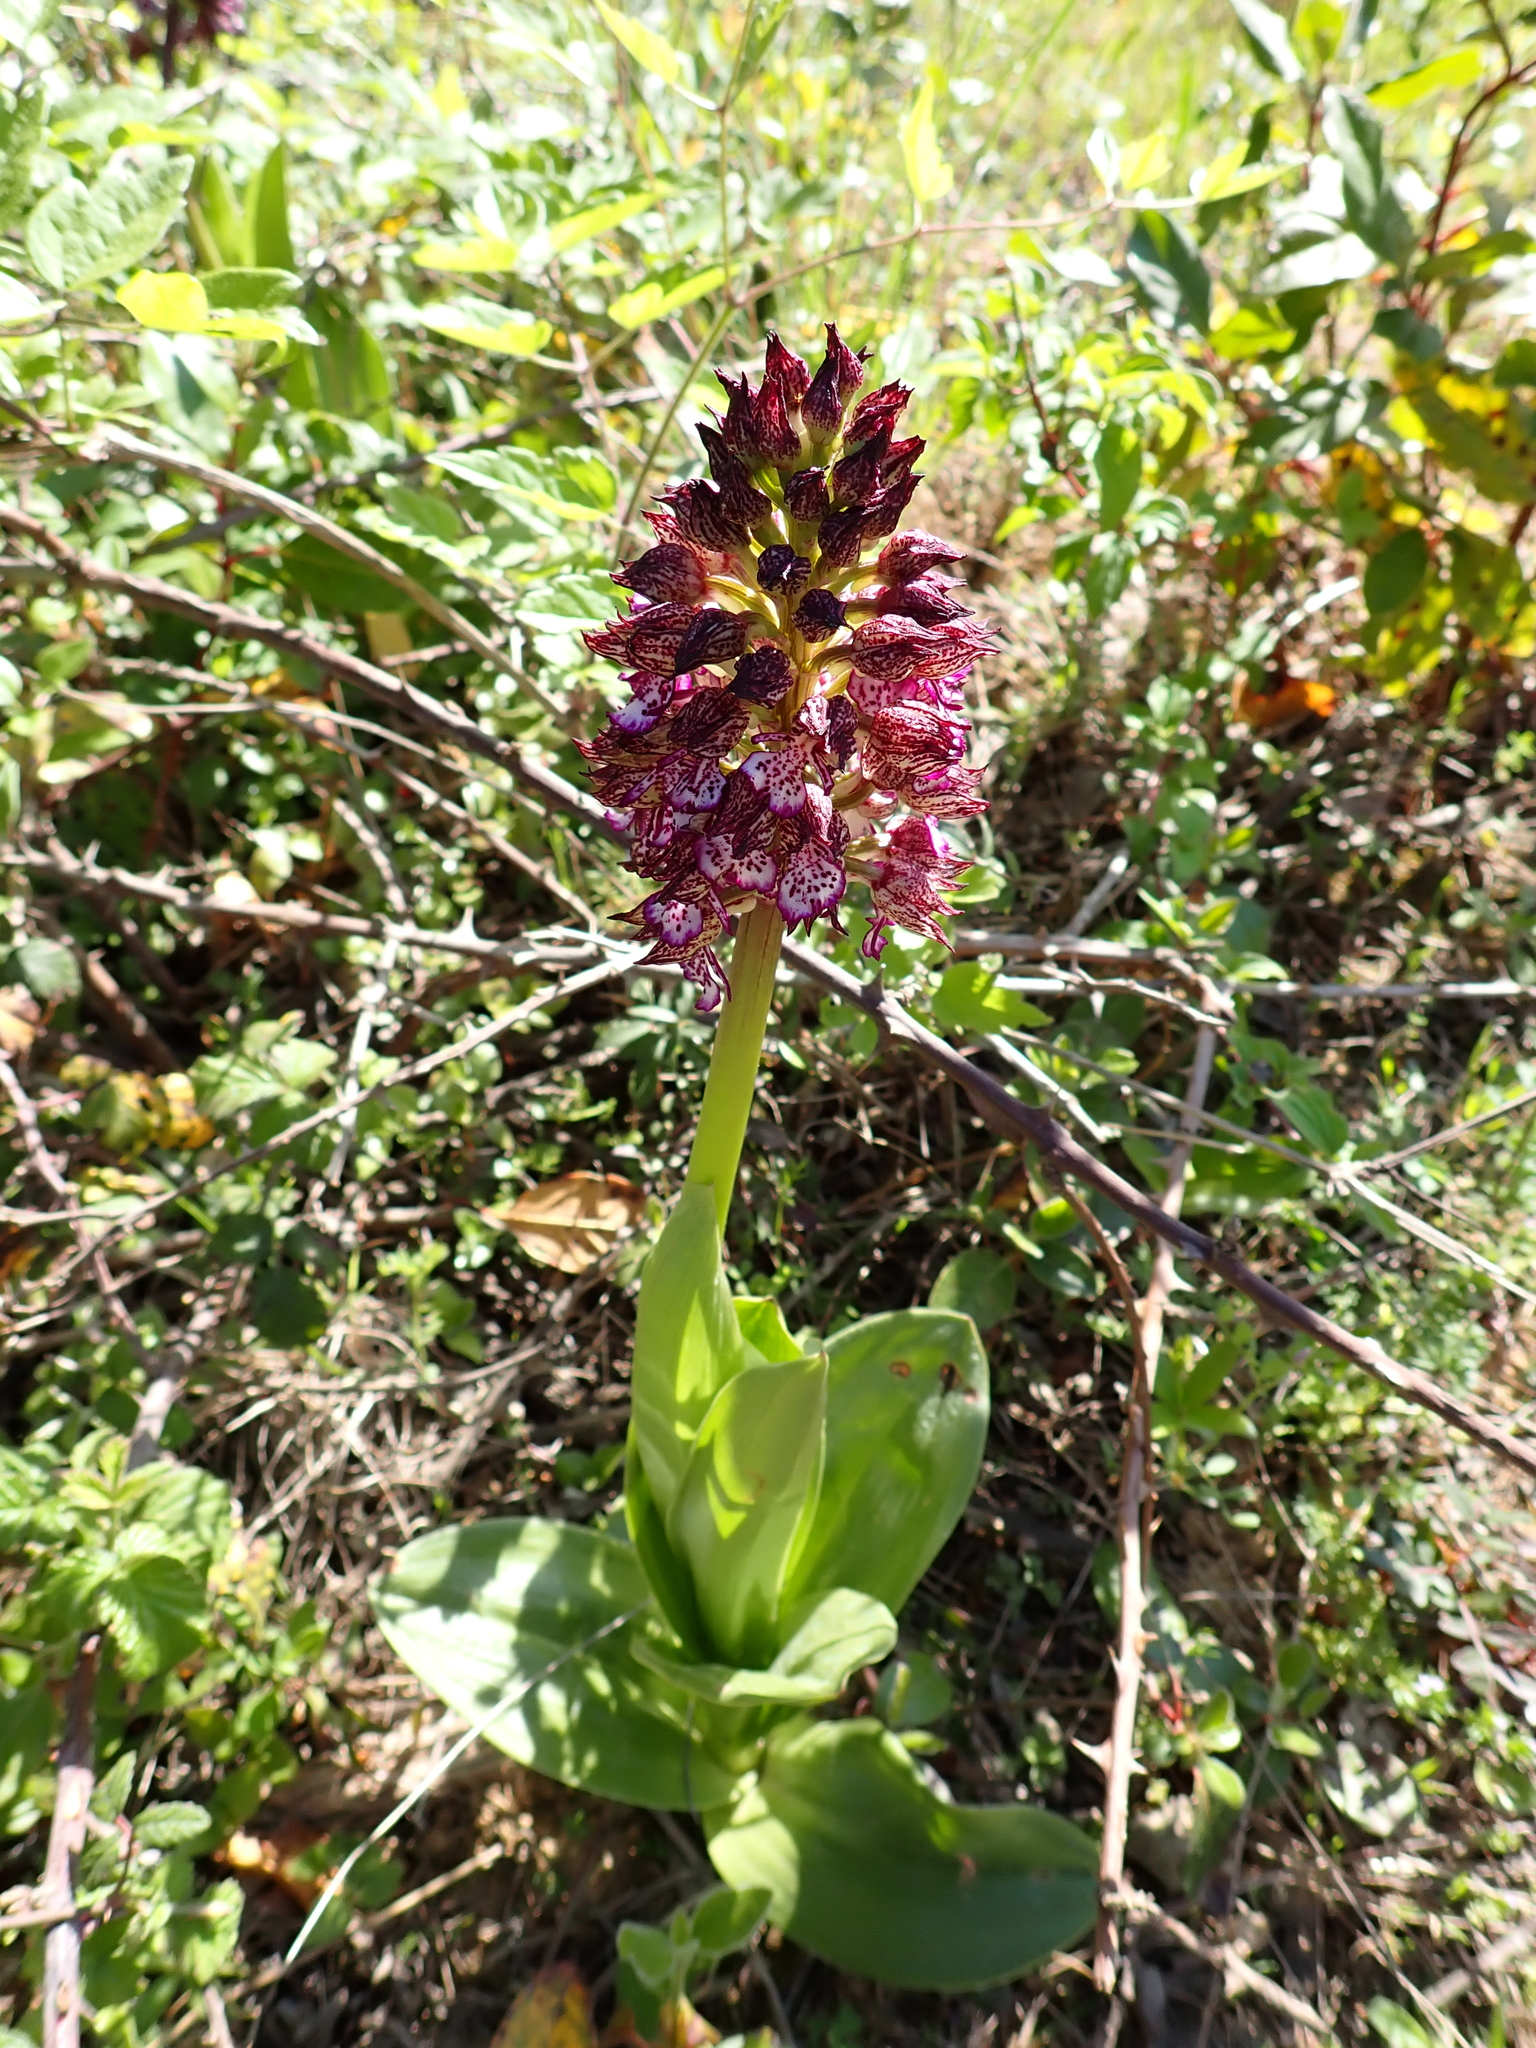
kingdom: Plantae
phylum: Tracheophyta
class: Liliopsida
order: Asparagales
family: Orchidaceae
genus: Orchis
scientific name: Orchis purpurea
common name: Lady orchid
